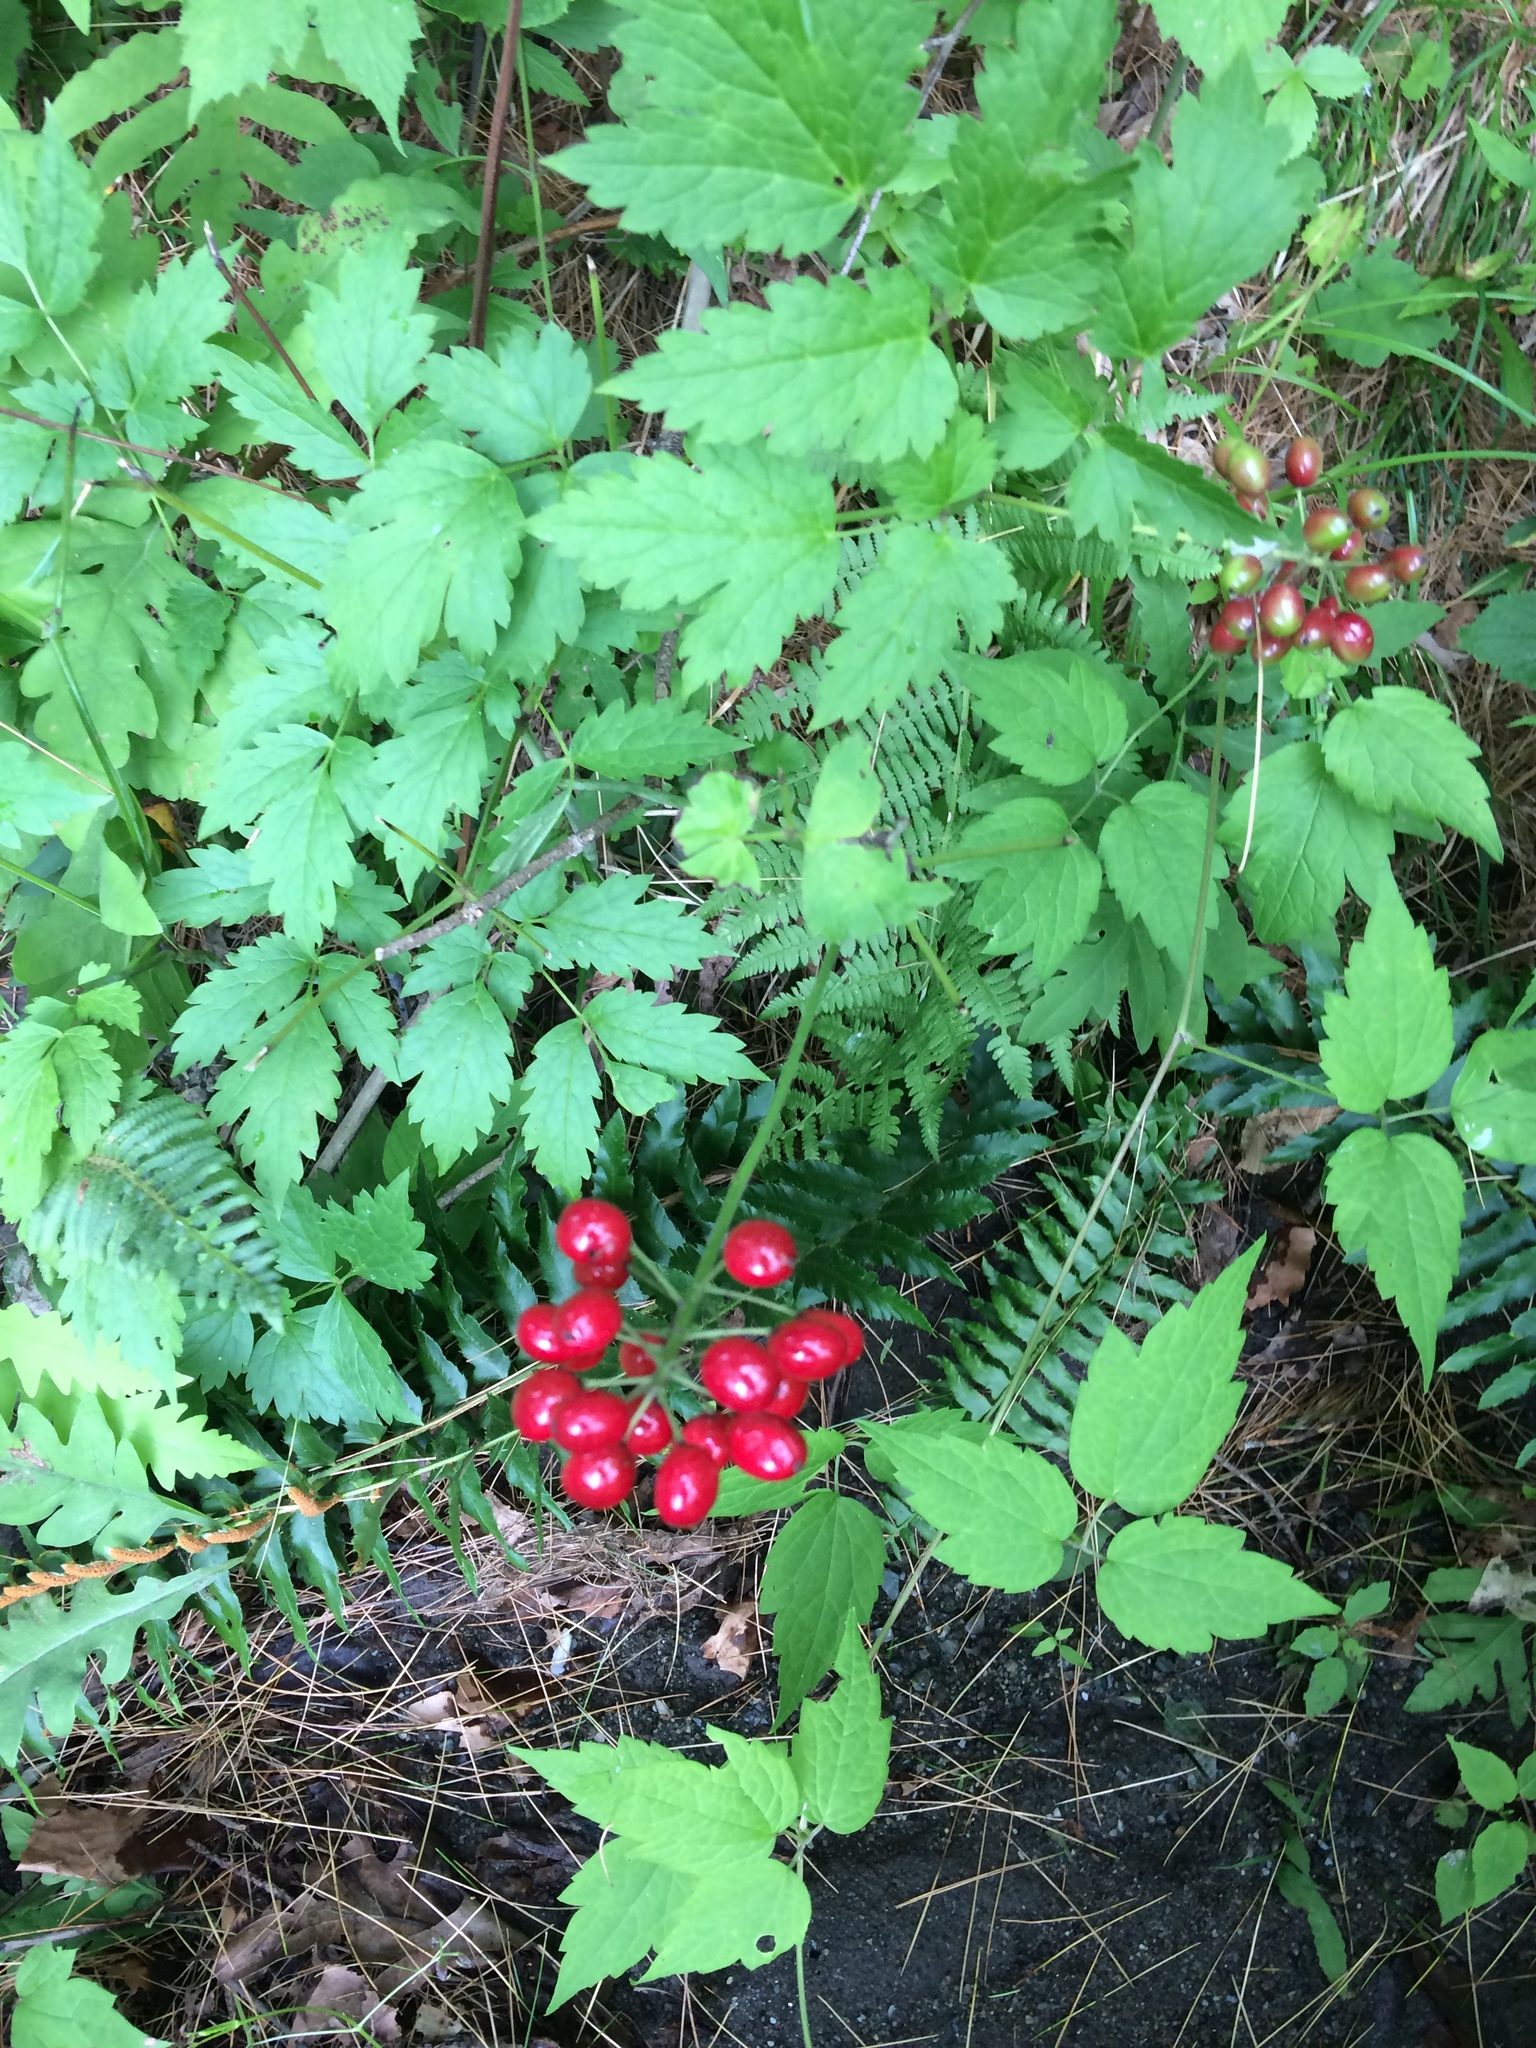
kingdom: Plantae
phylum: Tracheophyta
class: Magnoliopsida
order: Ranunculales
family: Ranunculaceae
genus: Actaea
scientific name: Actaea rubra
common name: Red baneberry
